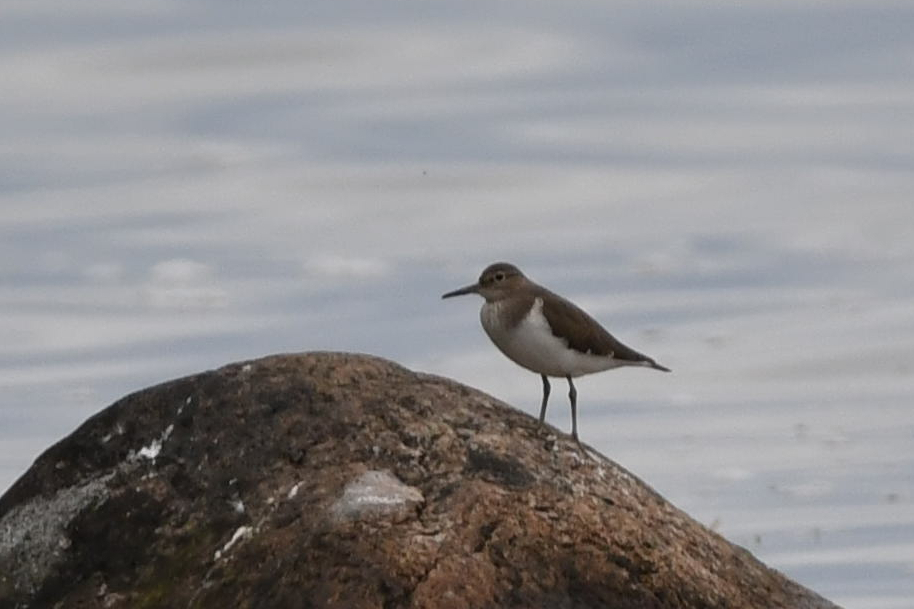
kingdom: Animalia
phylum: Chordata
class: Aves
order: Charadriiformes
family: Scolopacidae
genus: Actitis
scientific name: Actitis hypoleucos
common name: Common sandpiper
